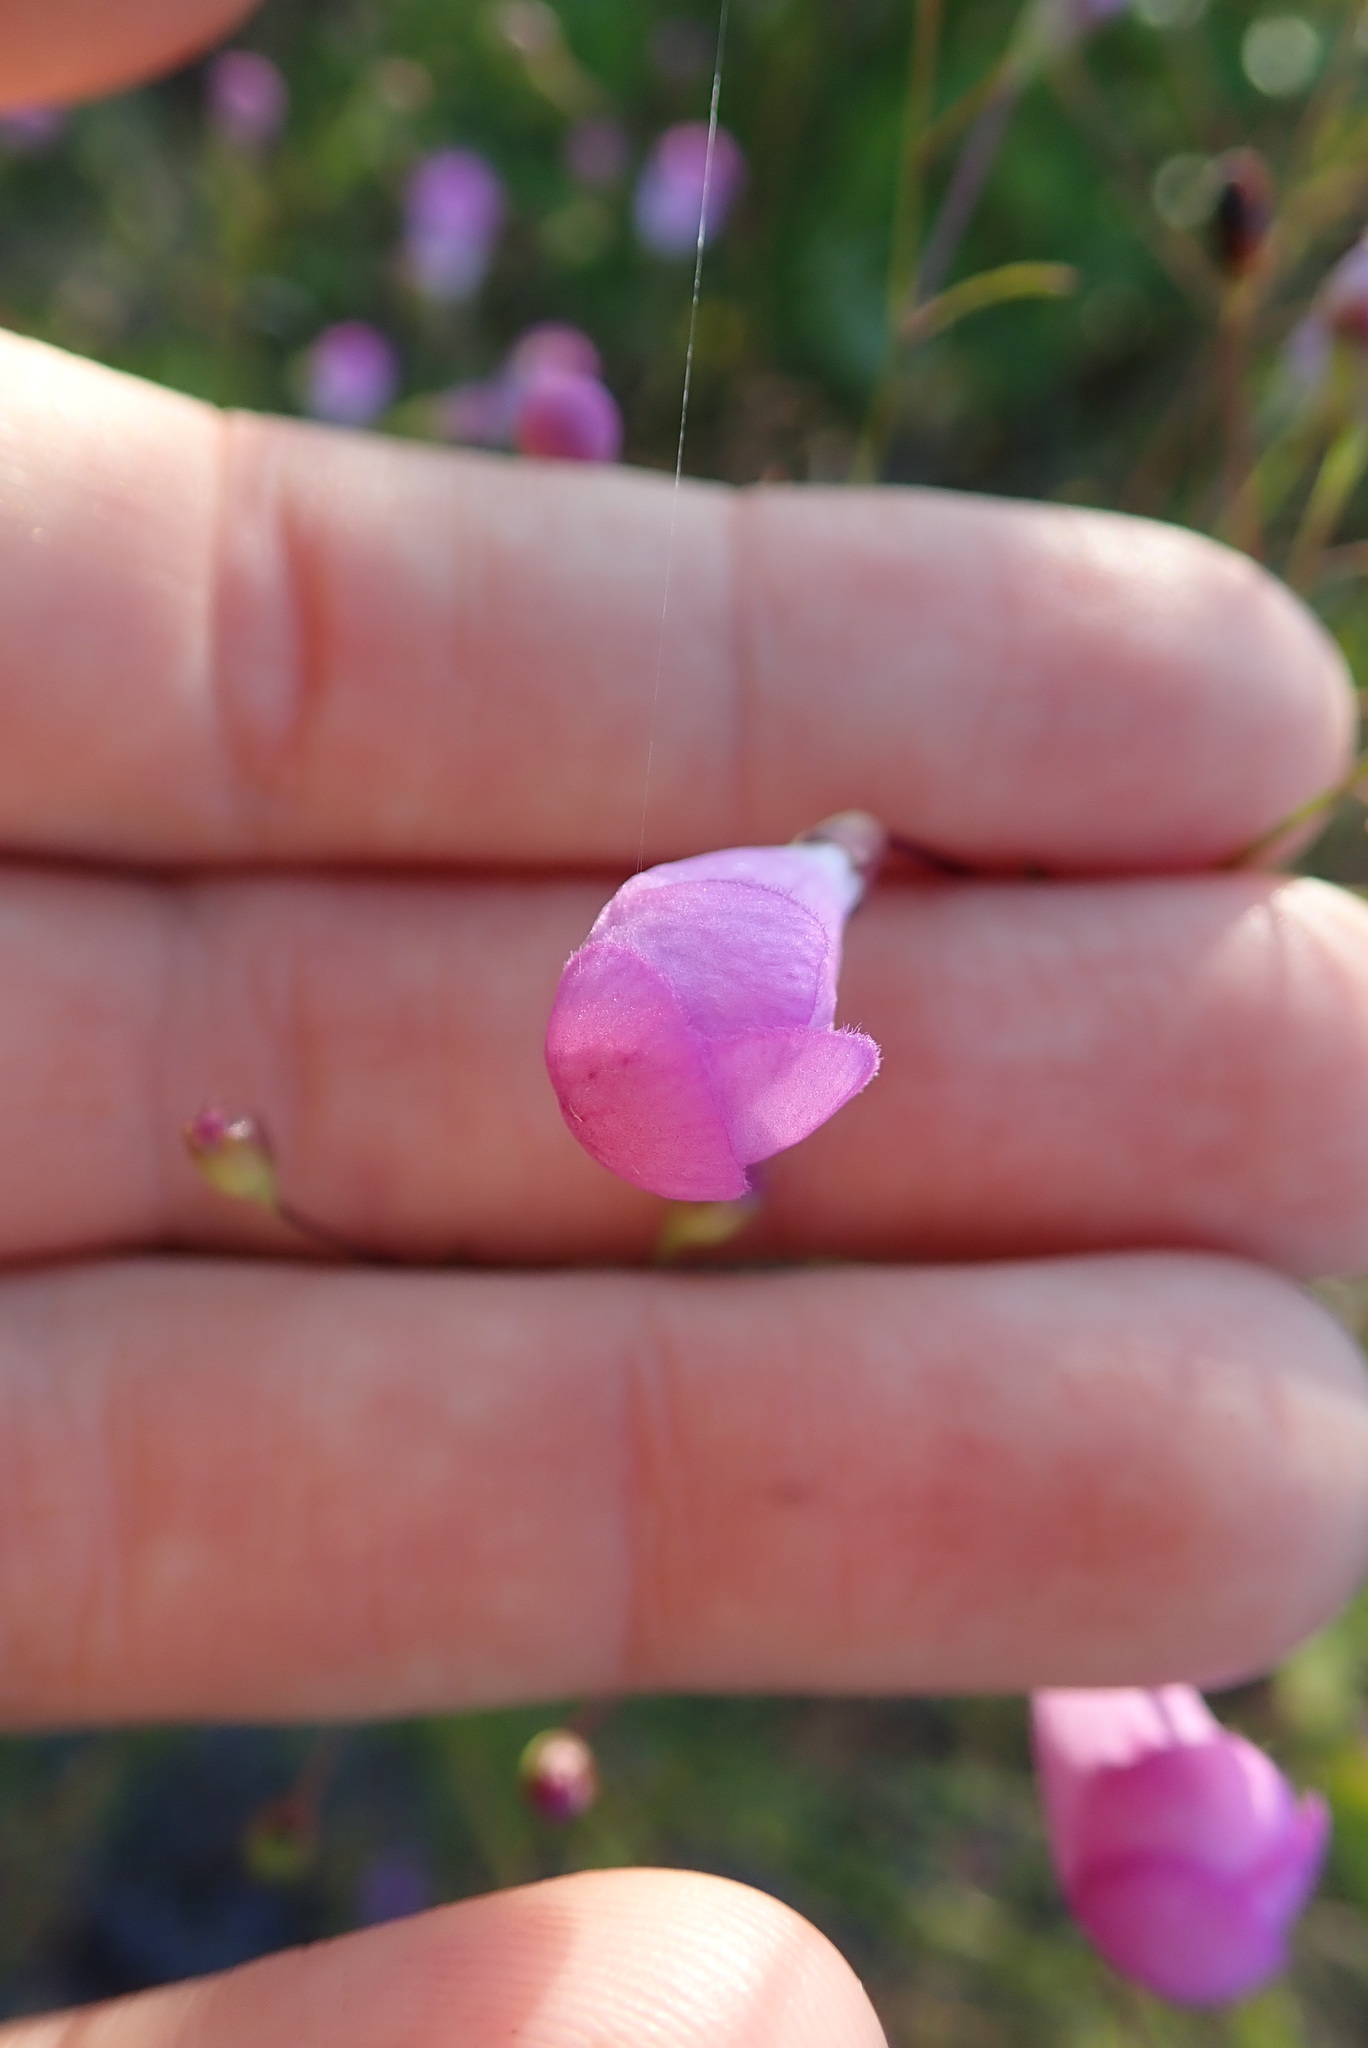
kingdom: Plantae
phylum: Tracheophyta
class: Magnoliopsida
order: Lamiales
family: Orobanchaceae
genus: Agalinis
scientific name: Agalinis filifolia
